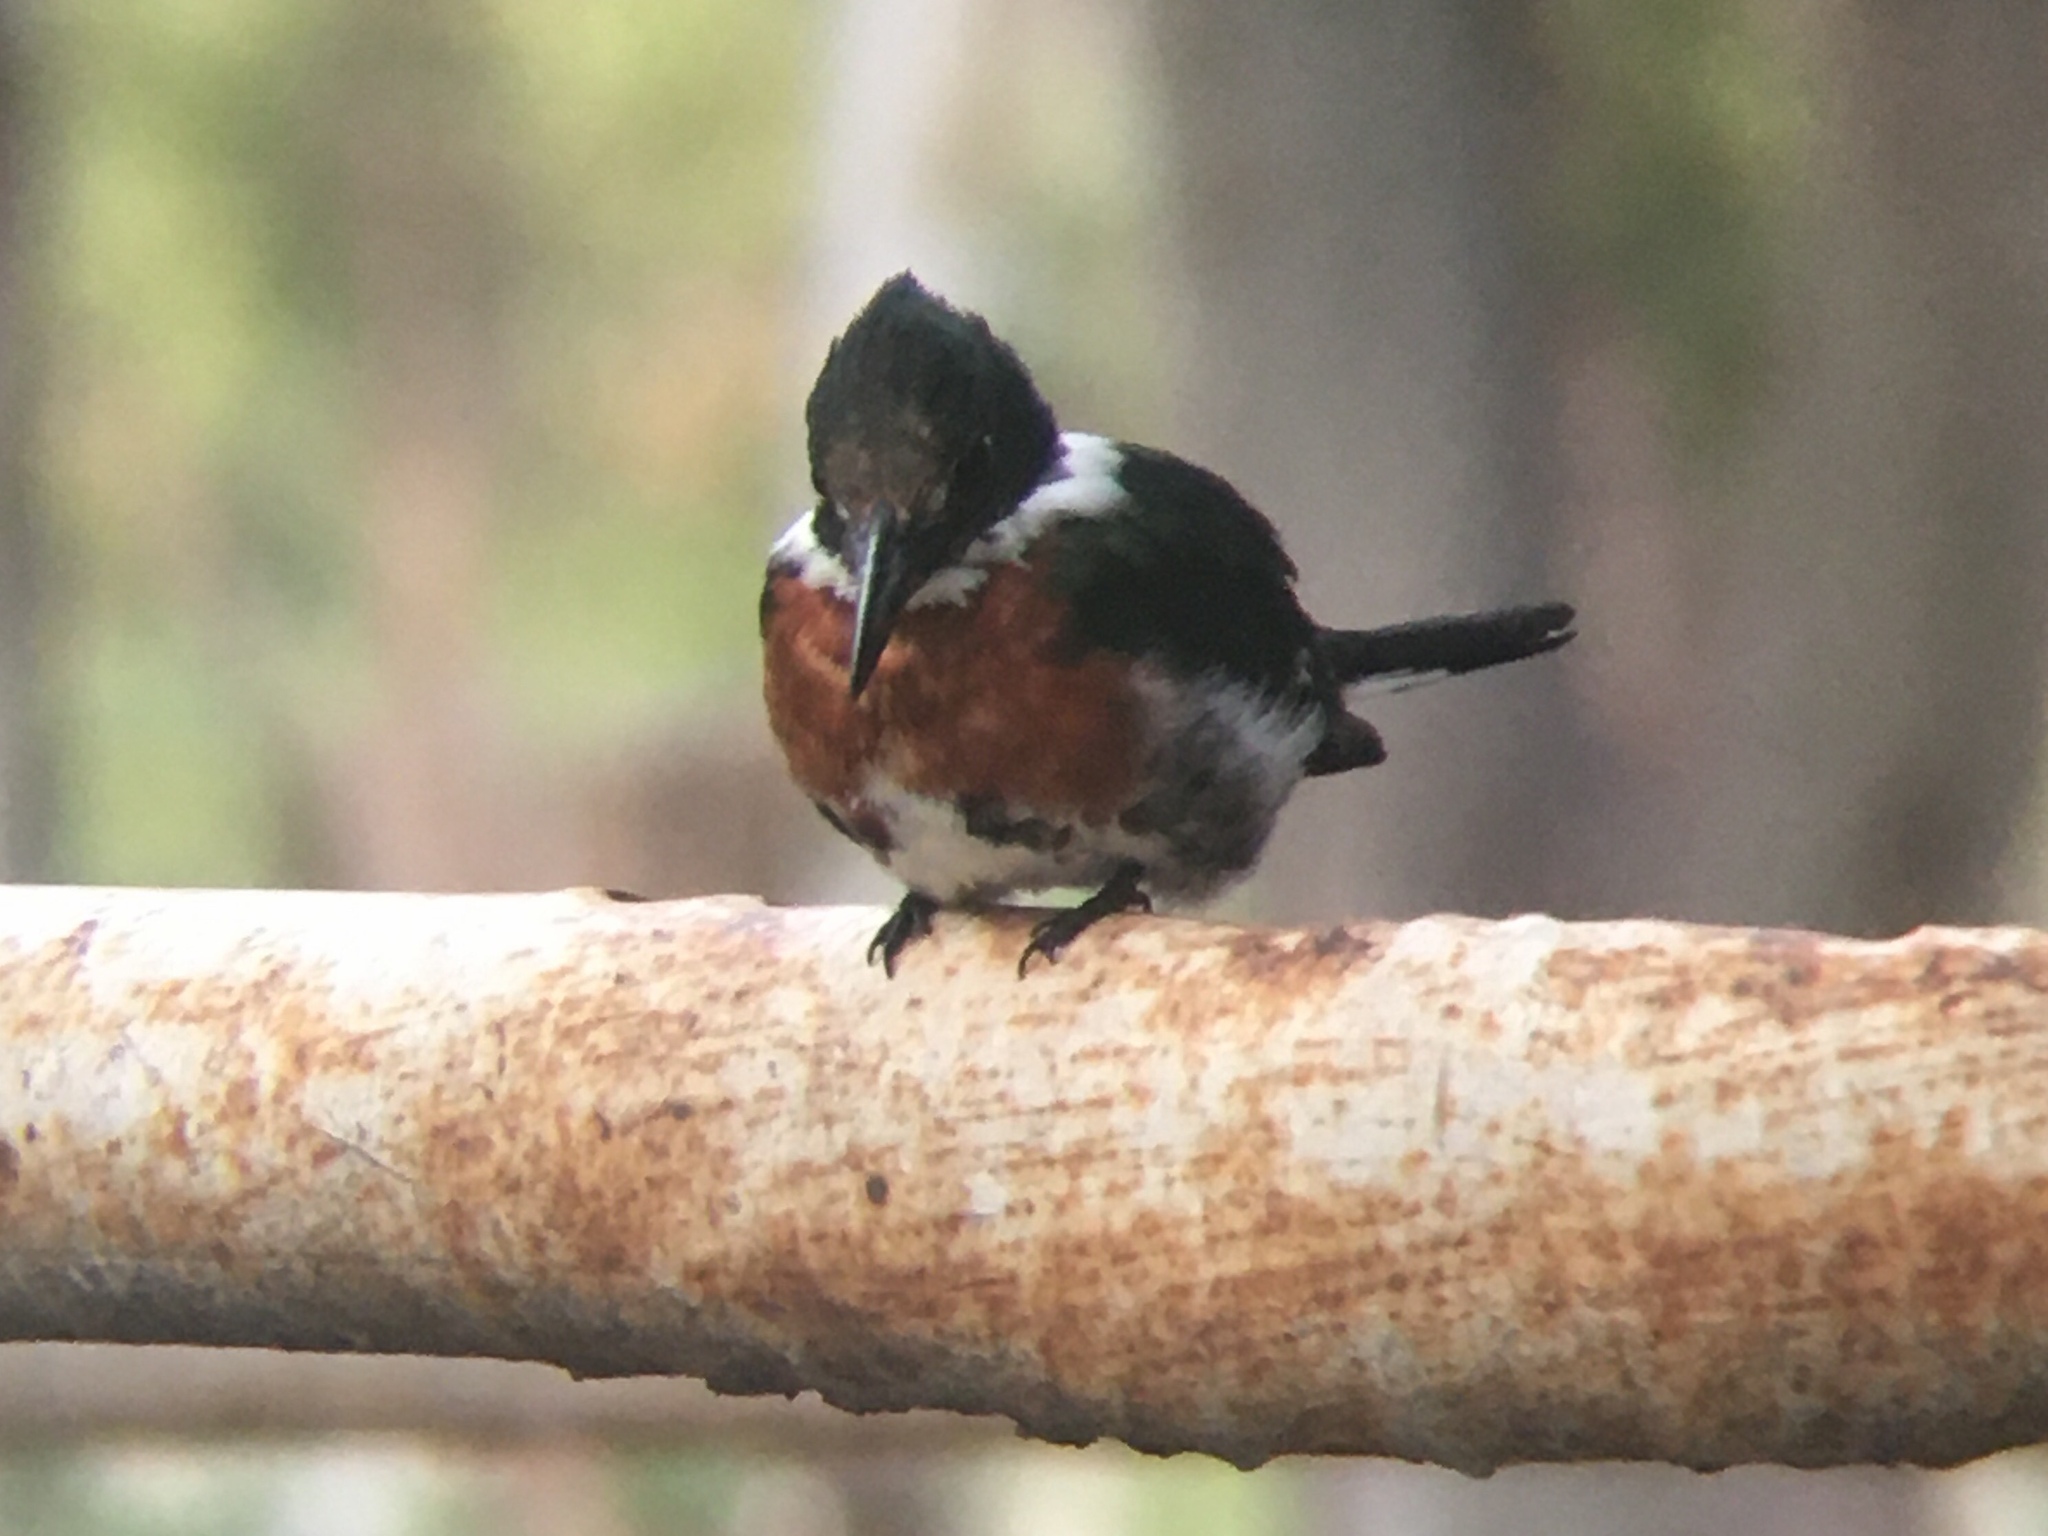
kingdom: Animalia
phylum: Chordata
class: Aves
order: Coraciiformes
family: Alcedinidae
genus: Chloroceryle
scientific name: Chloroceryle americana
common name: Green kingfisher
